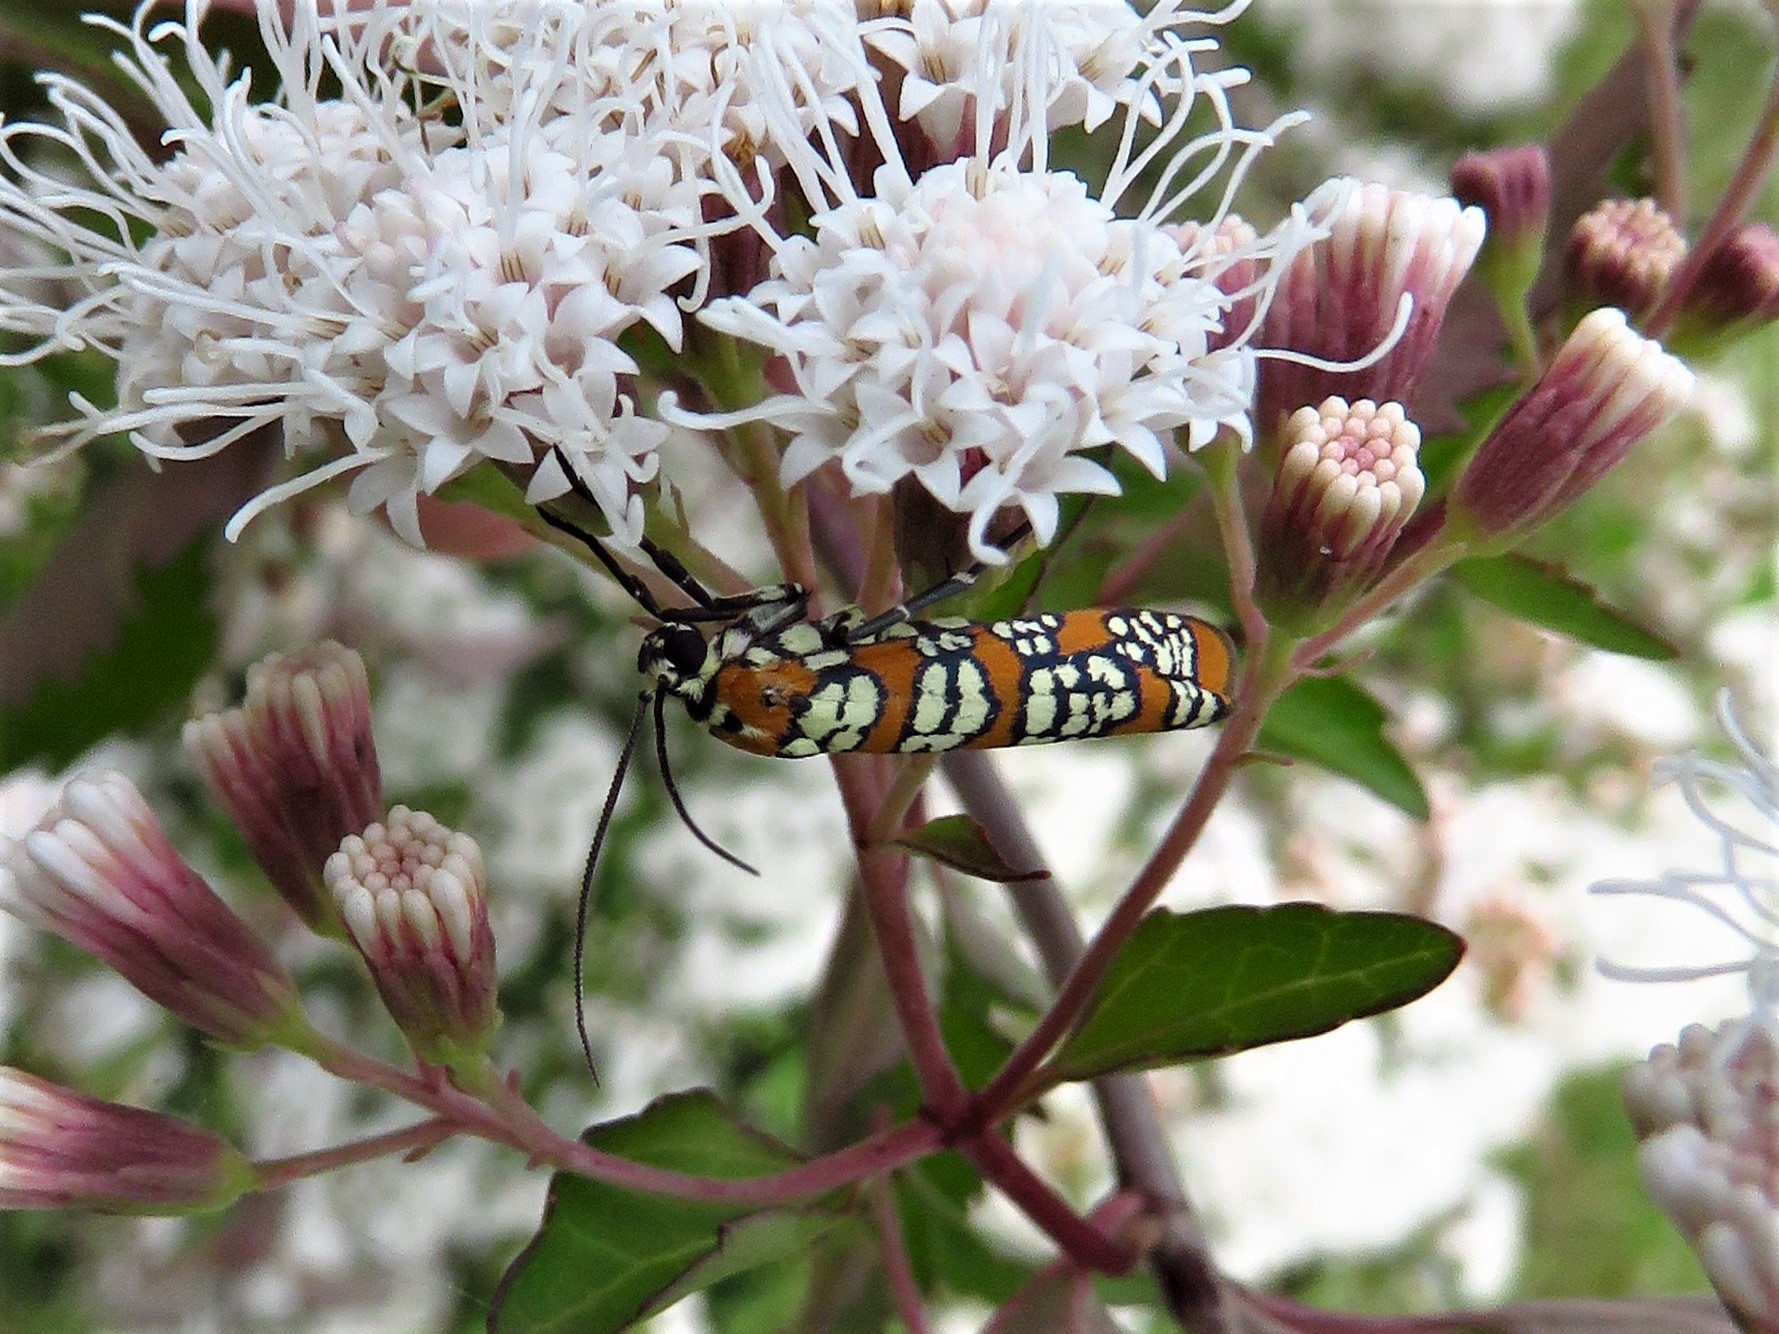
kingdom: Animalia
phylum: Arthropoda
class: Insecta
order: Lepidoptera
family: Attevidae
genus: Atteva
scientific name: Atteva punctella
